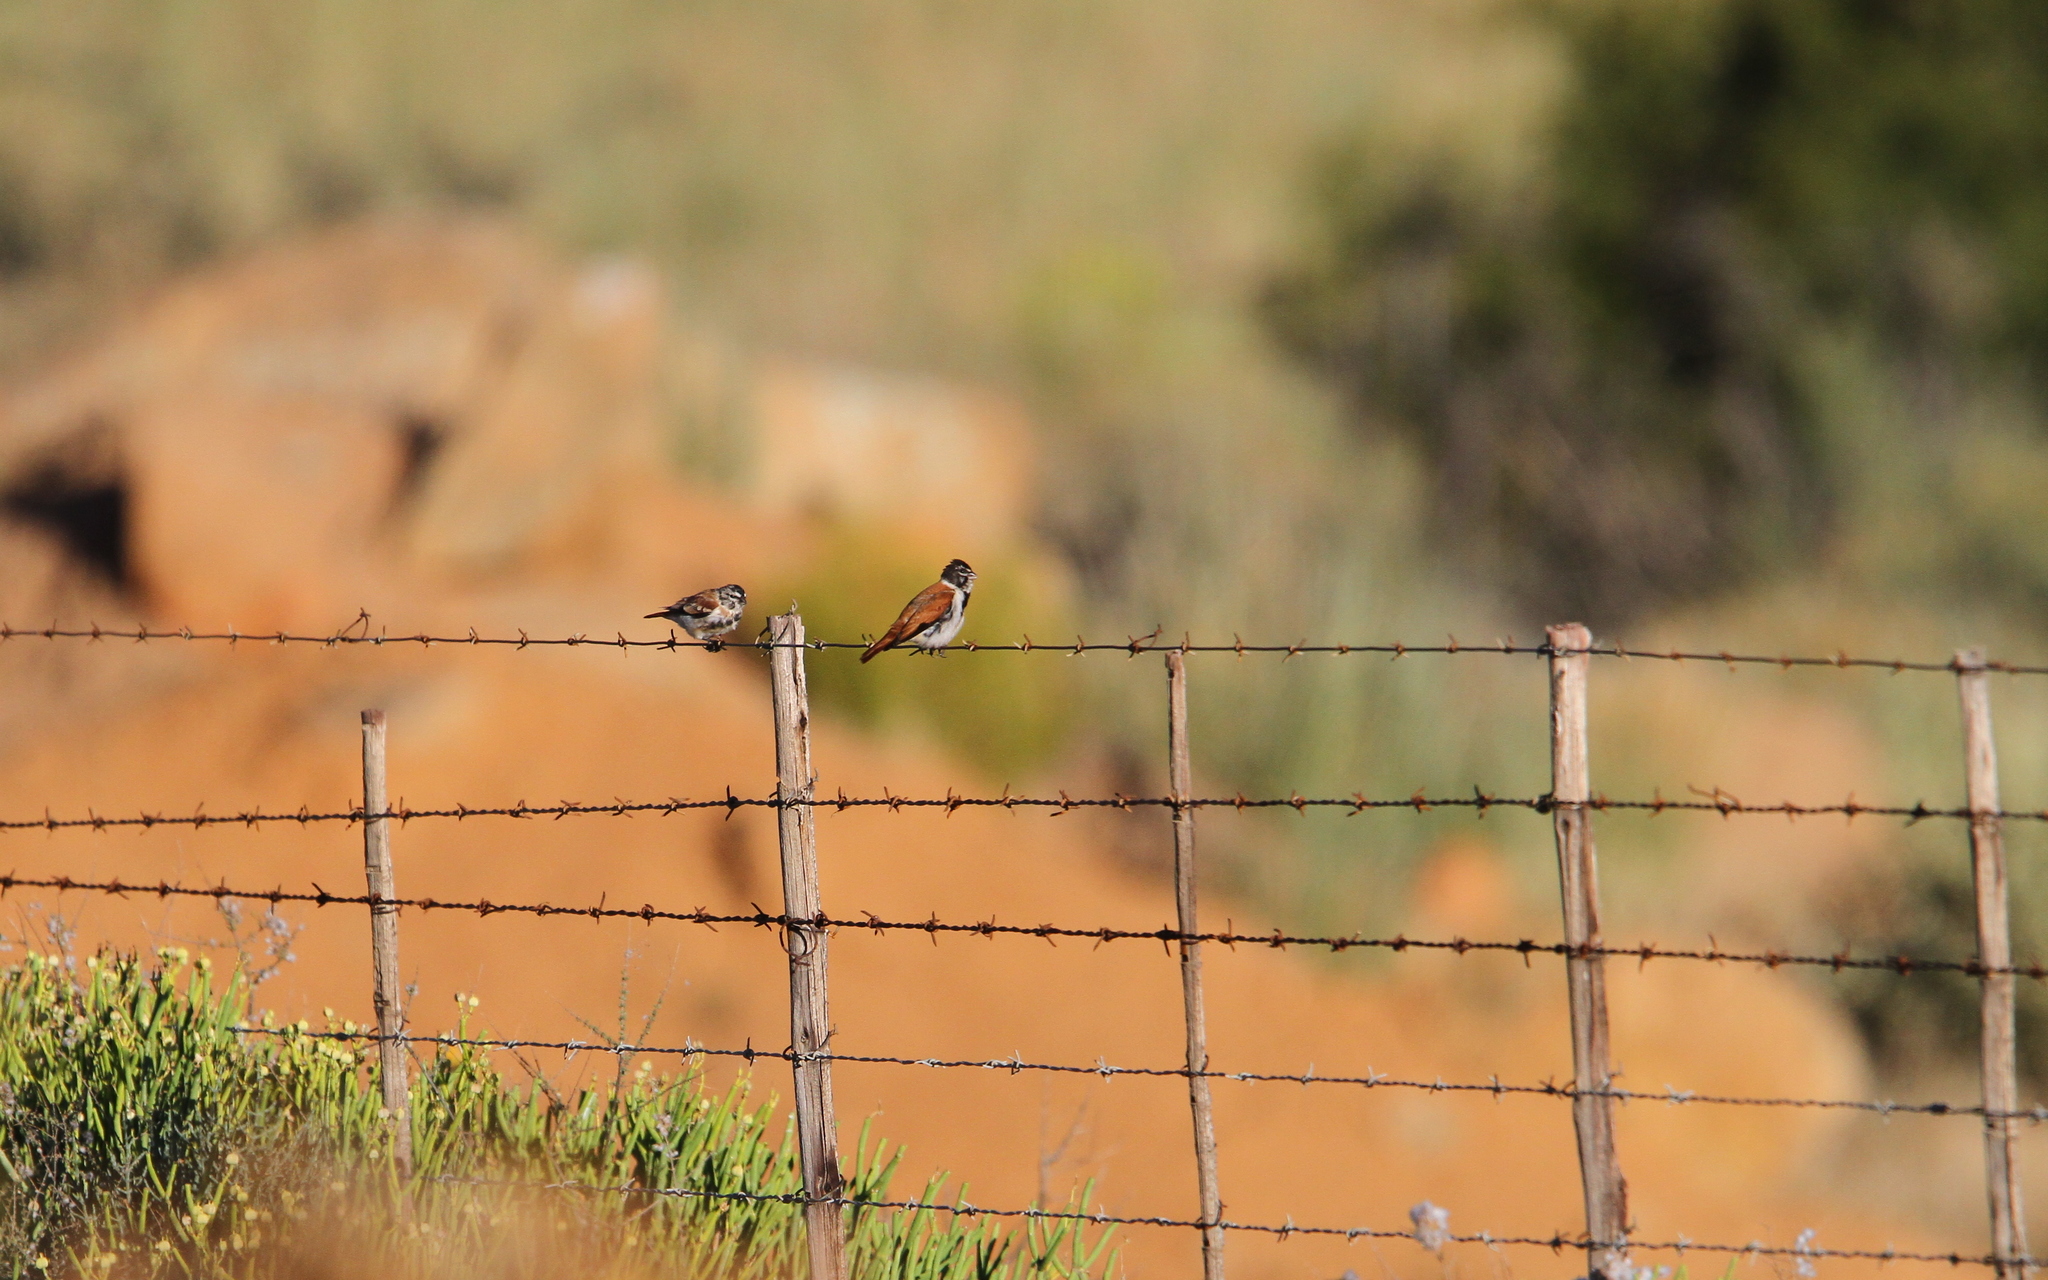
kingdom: Animalia
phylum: Chordata
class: Aves
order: Passeriformes
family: Fringillidae
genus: Serinus
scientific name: Serinus alario
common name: Black-headed canary
